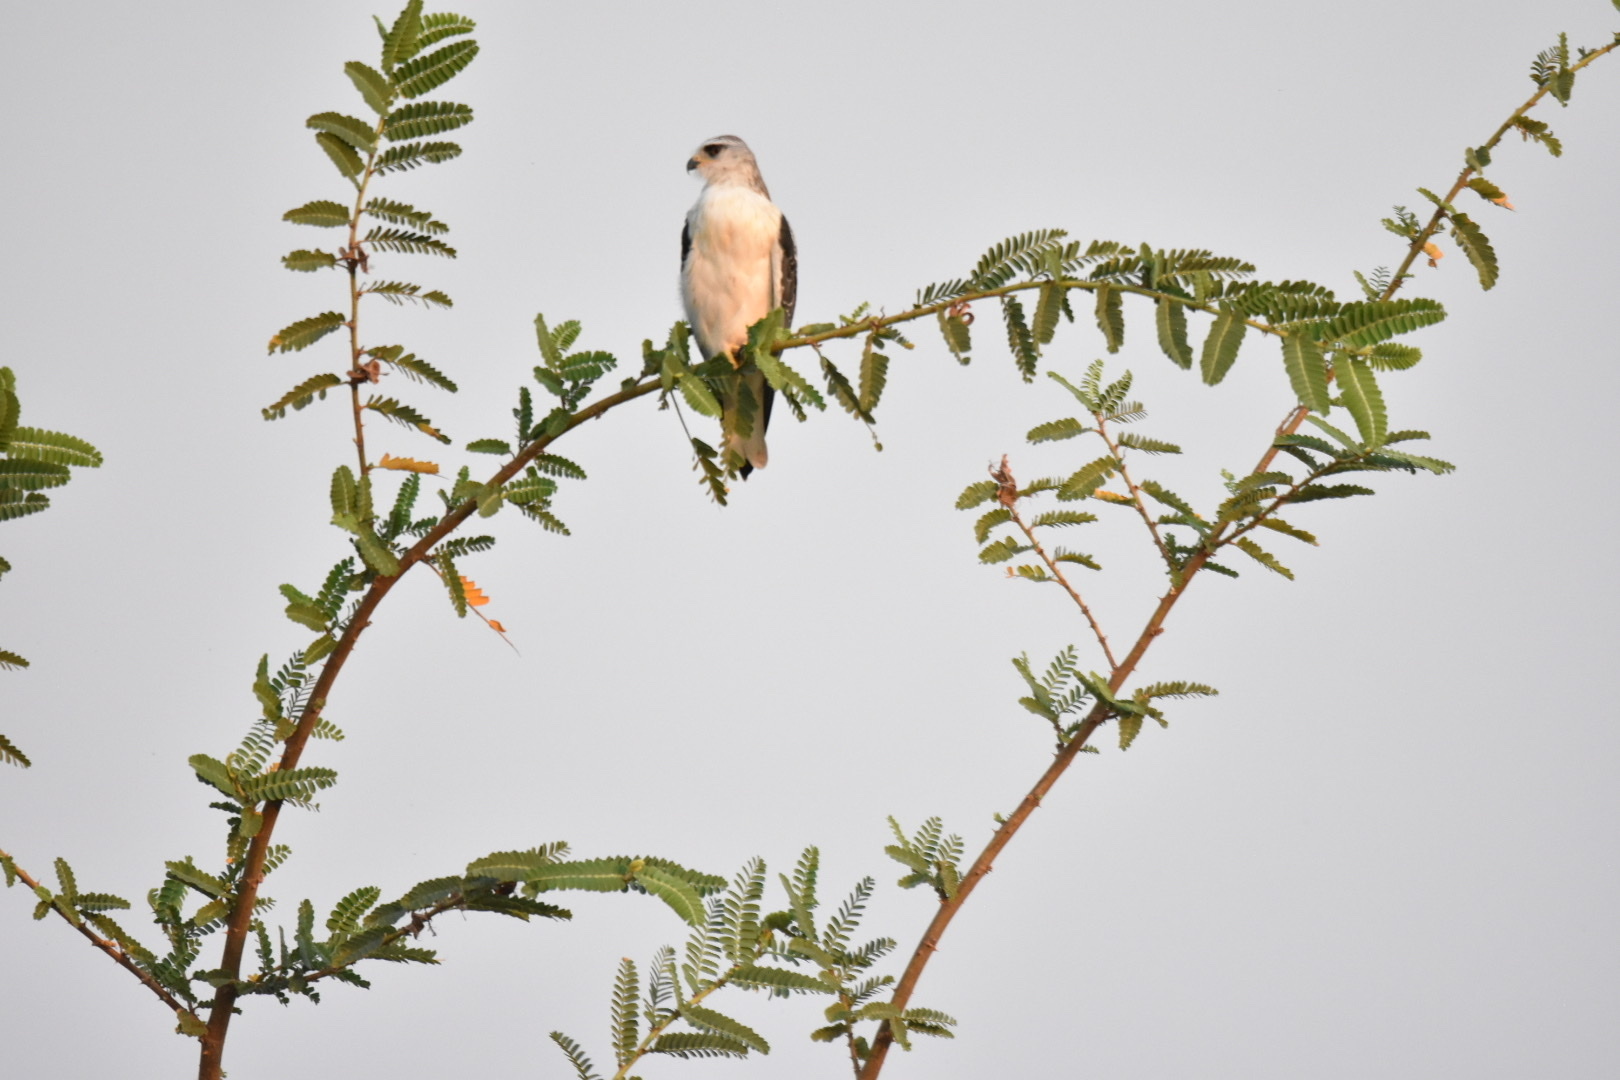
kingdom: Animalia
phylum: Chordata
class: Aves
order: Accipitriformes
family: Accipitridae
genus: Elanus
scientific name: Elanus caeruleus
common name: Black-winged kite
